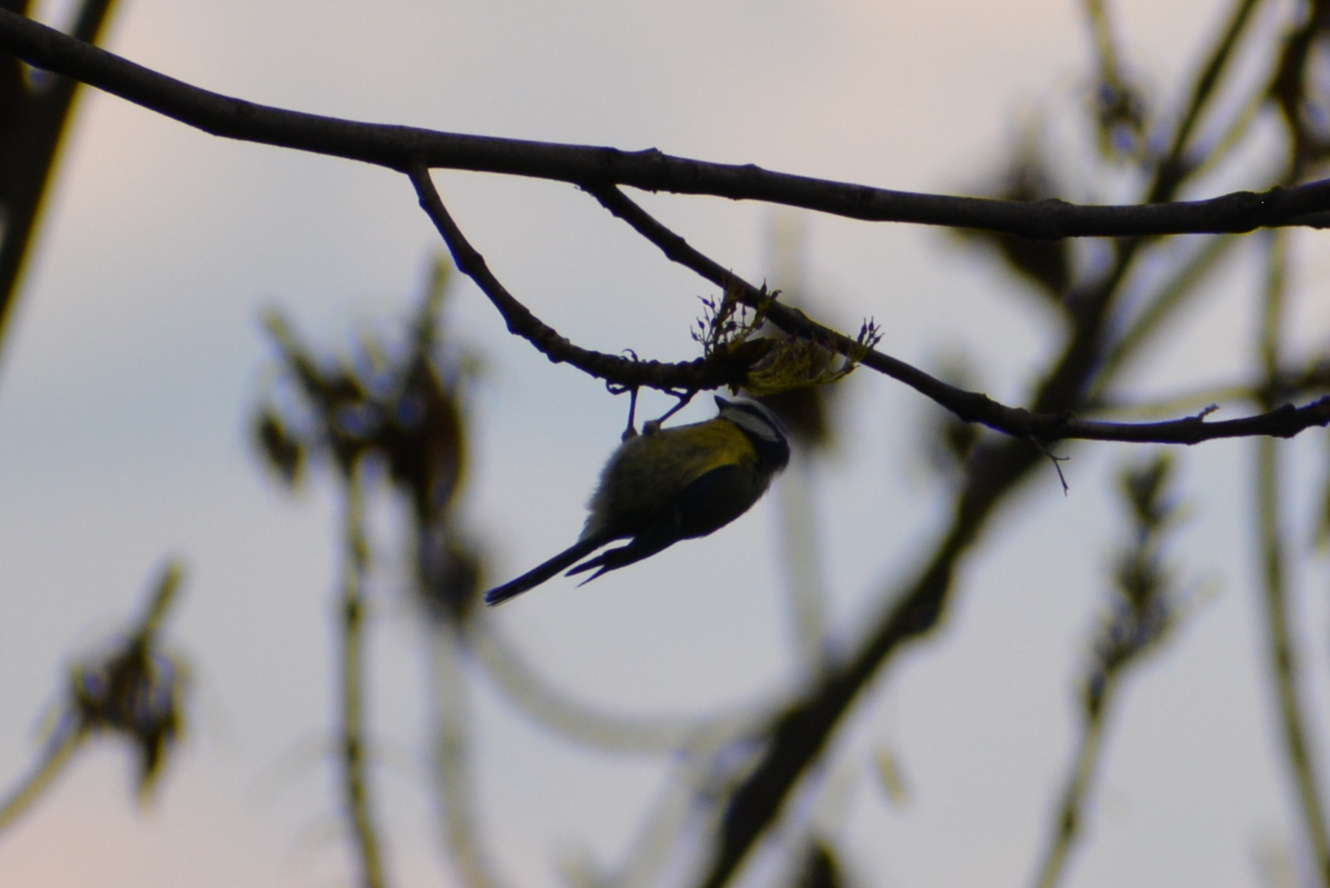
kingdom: Animalia
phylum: Chordata
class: Aves
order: Passeriformes
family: Paridae
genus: Cyanistes
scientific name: Cyanistes caeruleus
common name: Eurasian blue tit
